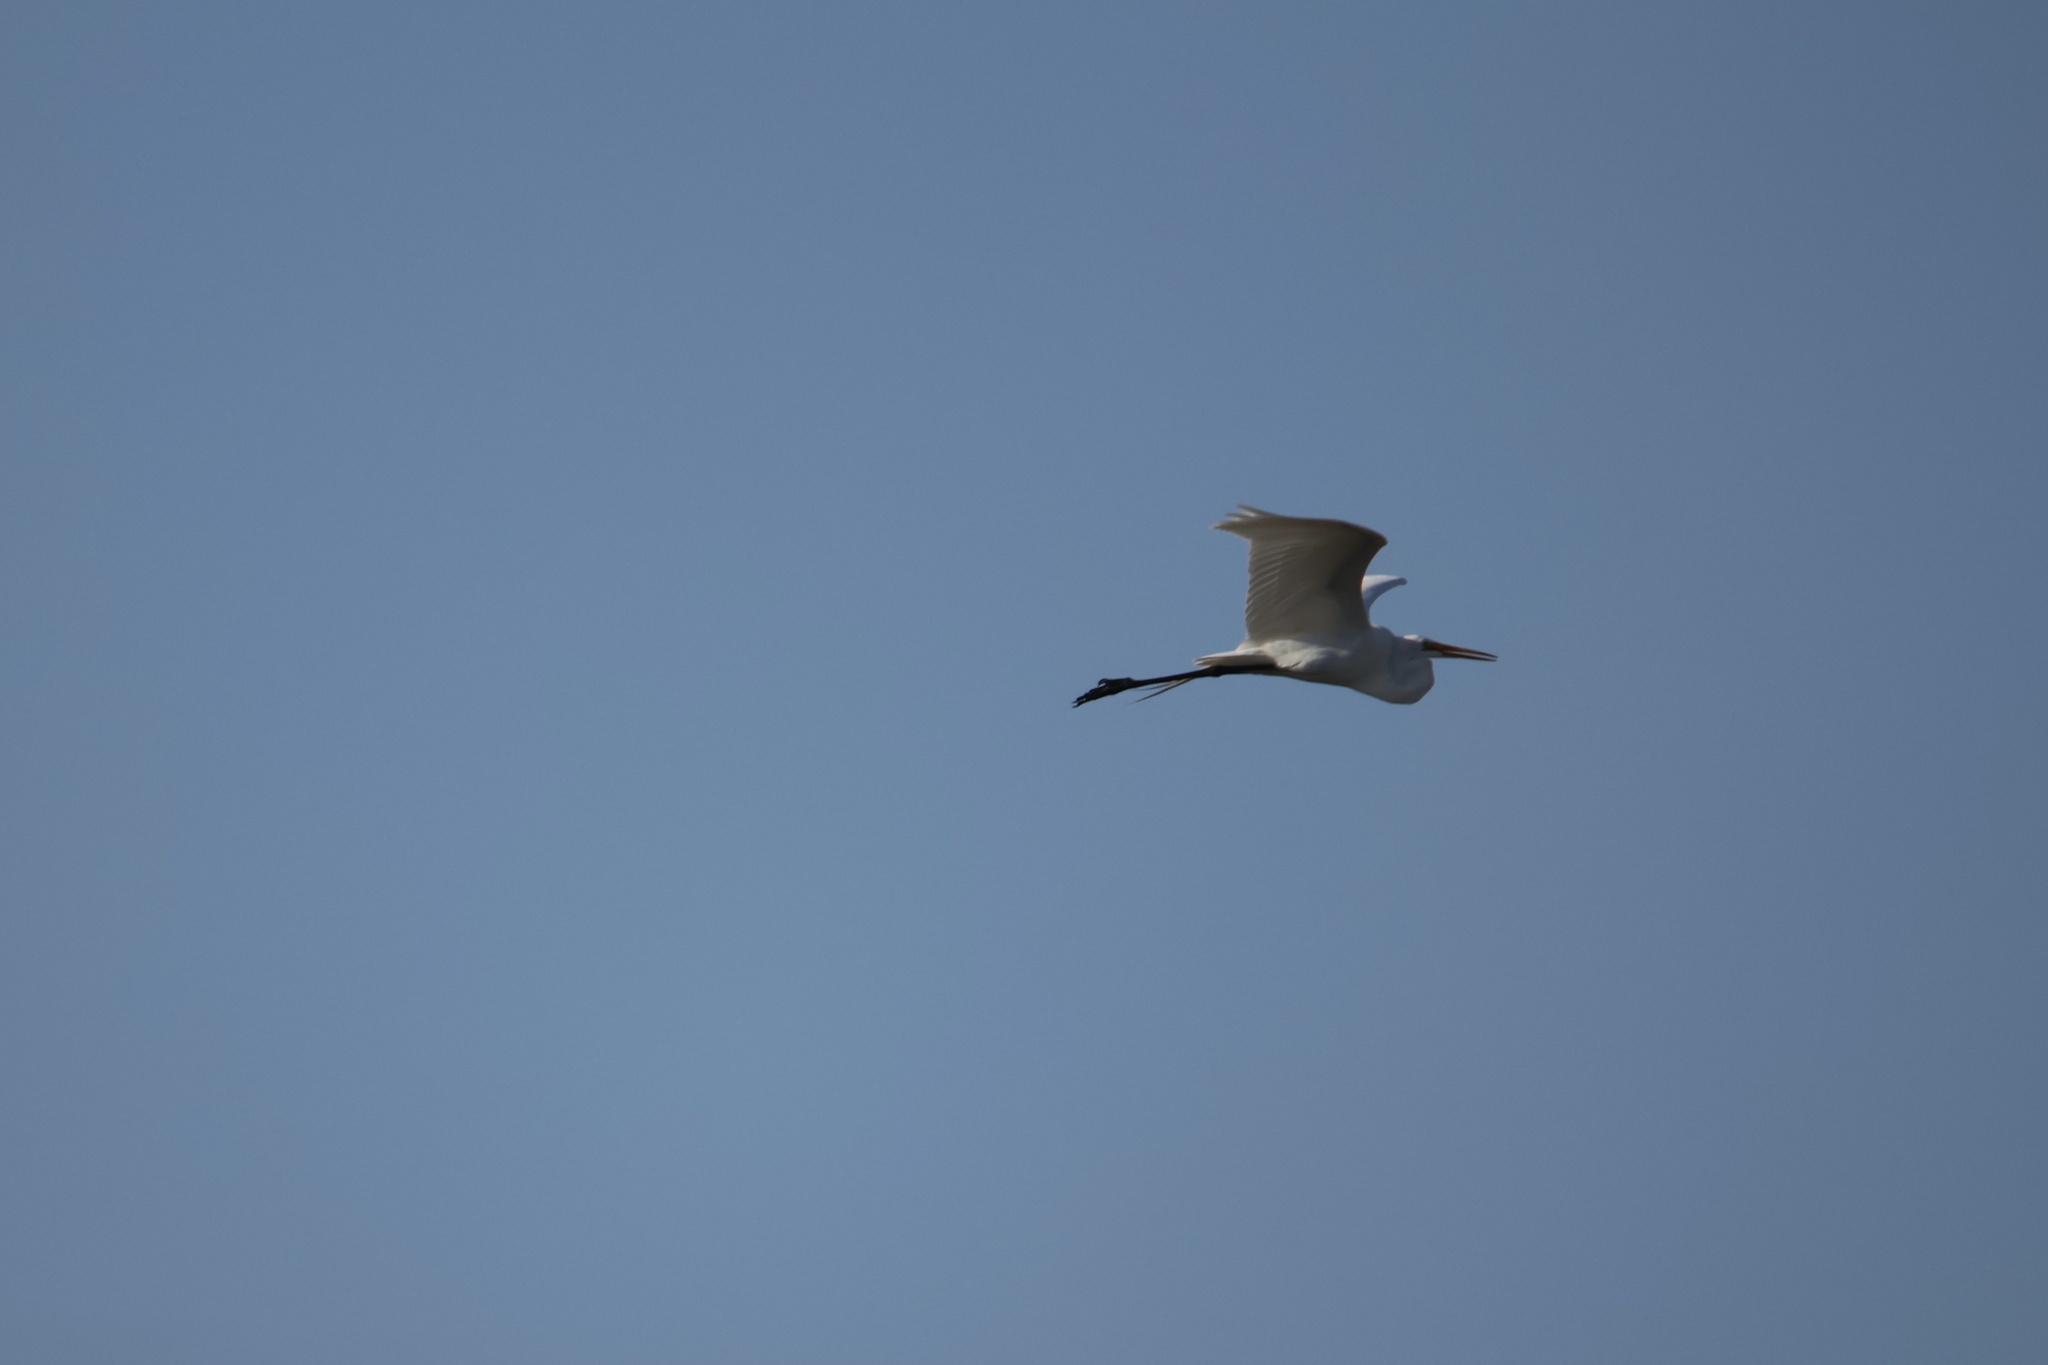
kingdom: Animalia
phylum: Chordata
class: Aves
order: Pelecaniformes
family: Ardeidae
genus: Ardea
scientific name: Ardea alba
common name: Great egret
